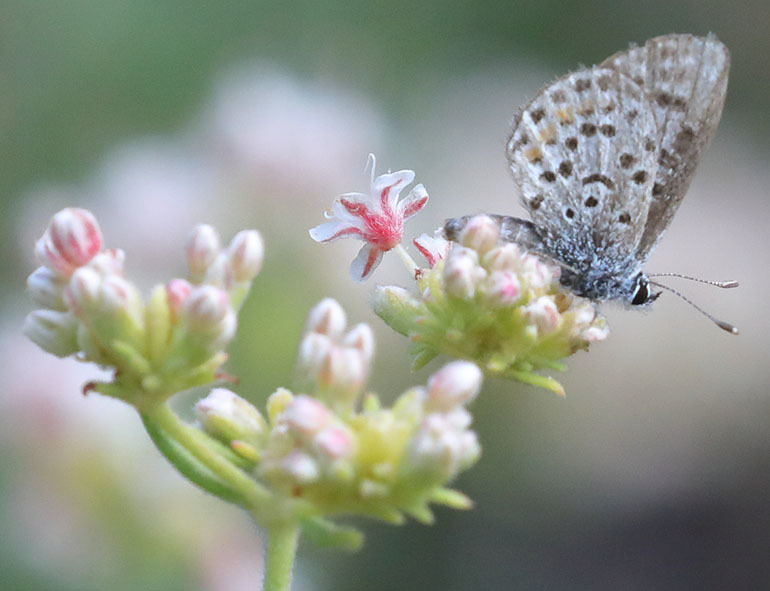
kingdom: Animalia
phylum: Arthropoda
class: Insecta
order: Lepidoptera
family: Lycaenidae
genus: Philotes
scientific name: Philotes bernardino
